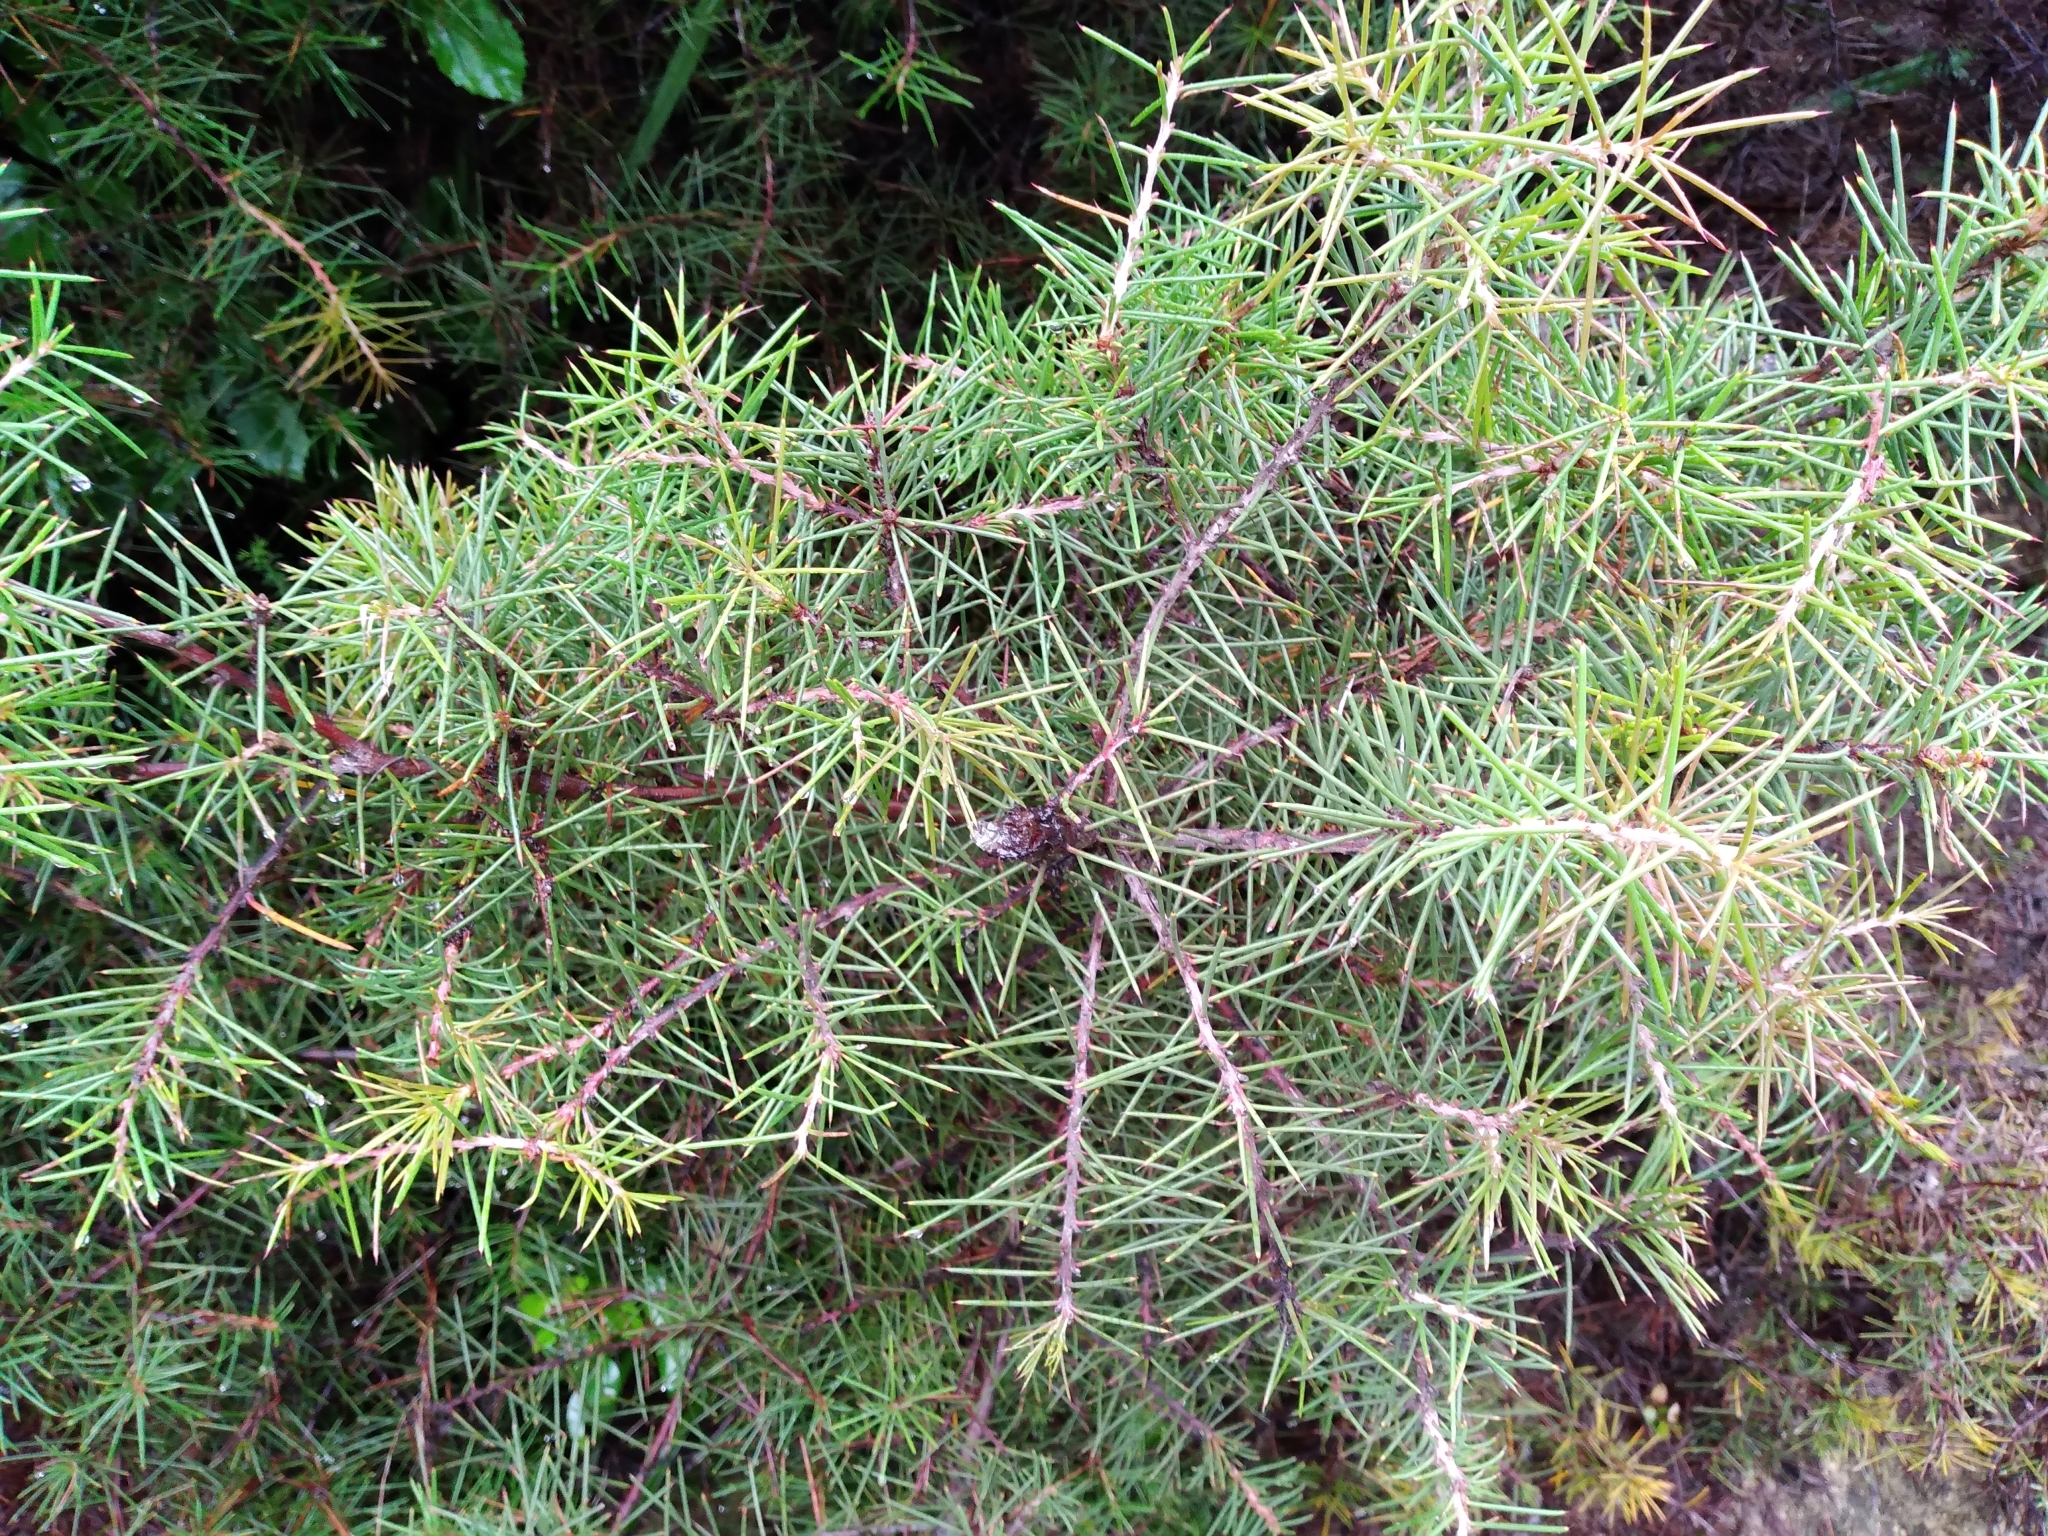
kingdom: Plantae
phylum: Tracheophyta
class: Magnoliopsida
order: Proteales
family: Proteaceae
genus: Hakea
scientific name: Hakea sericea
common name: Needle bush
